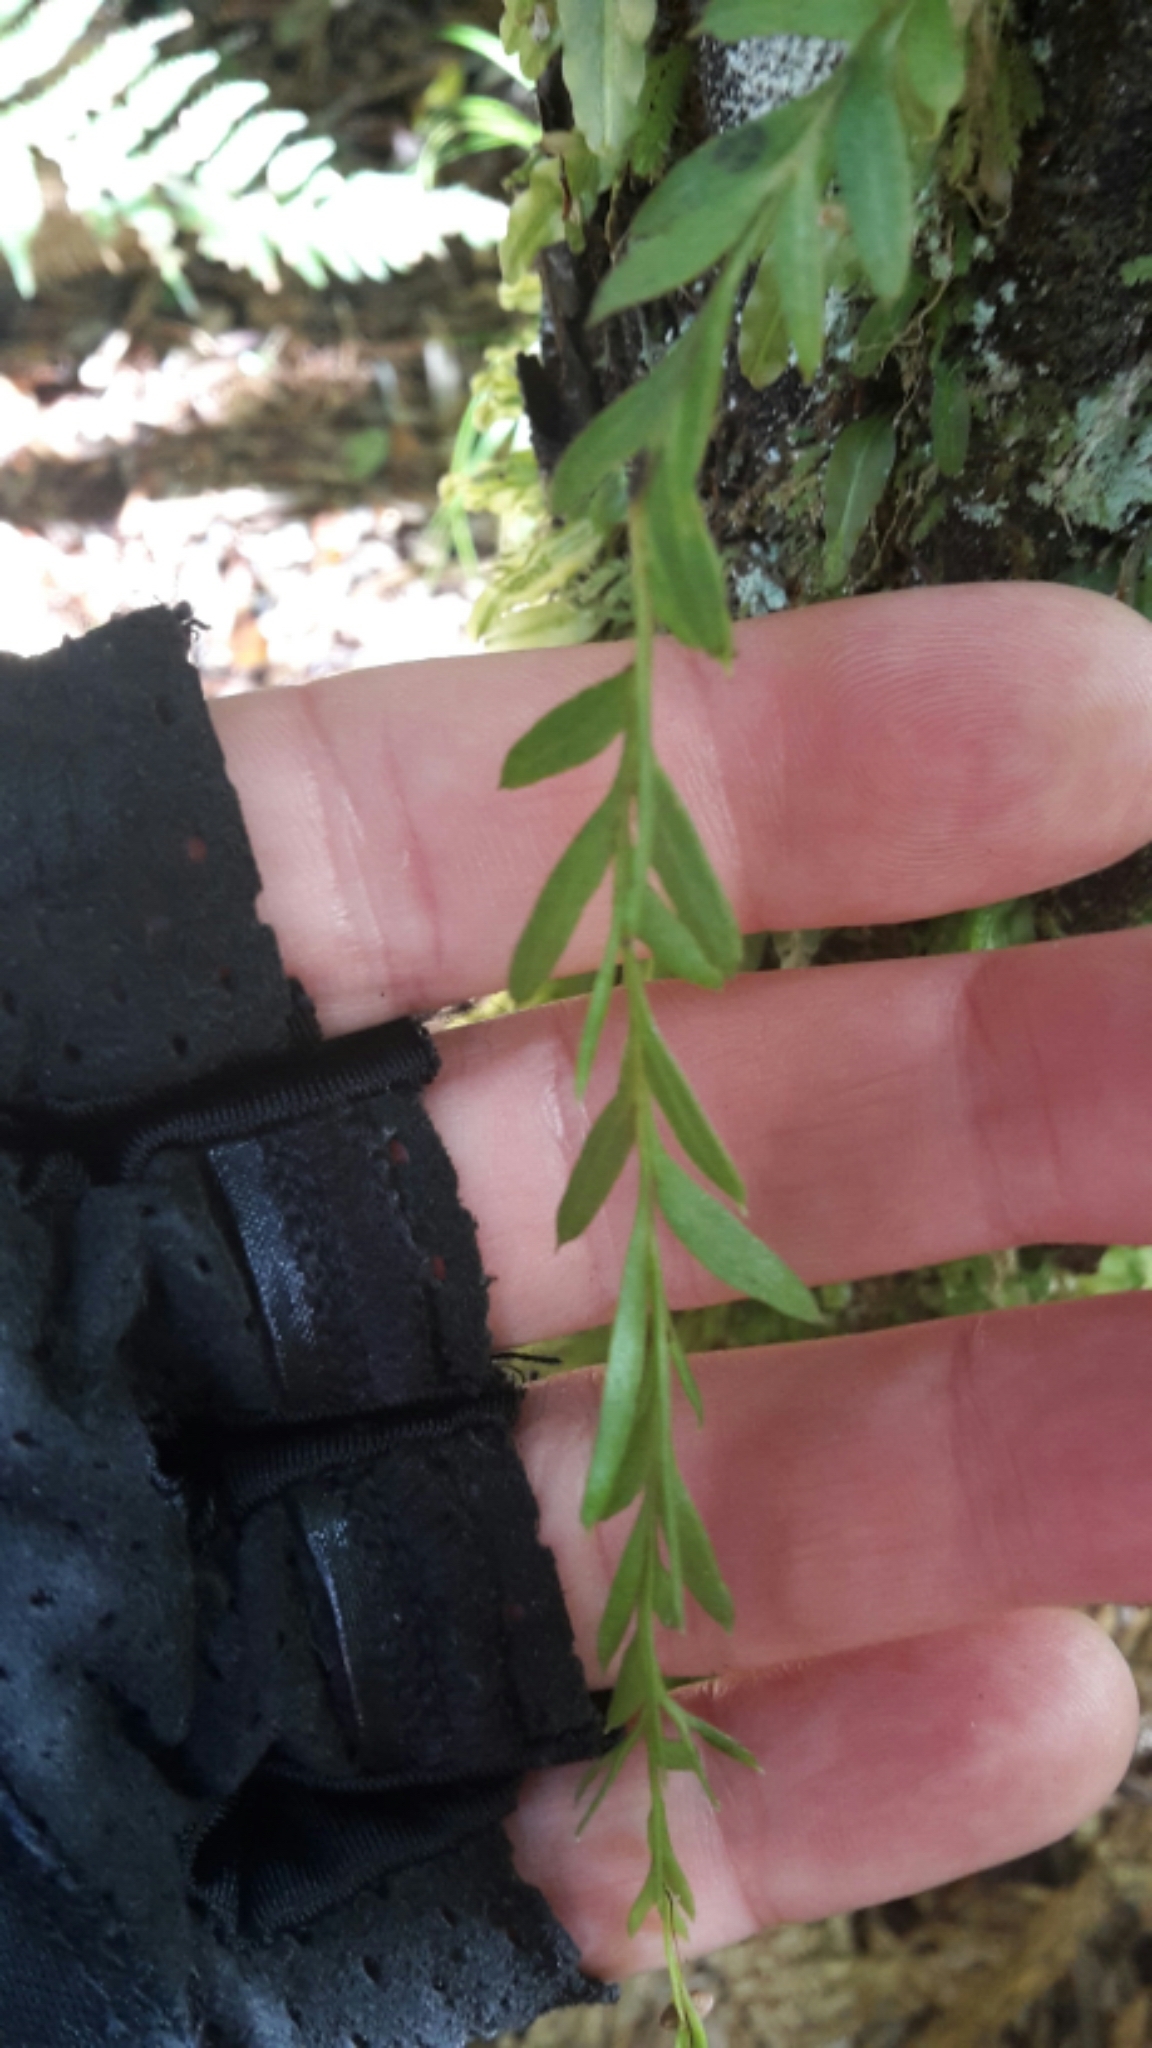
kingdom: Plantae
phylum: Tracheophyta
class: Polypodiopsida
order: Psilotales
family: Psilotaceae
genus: Tmesipteris
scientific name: Tmesipteris elongata
